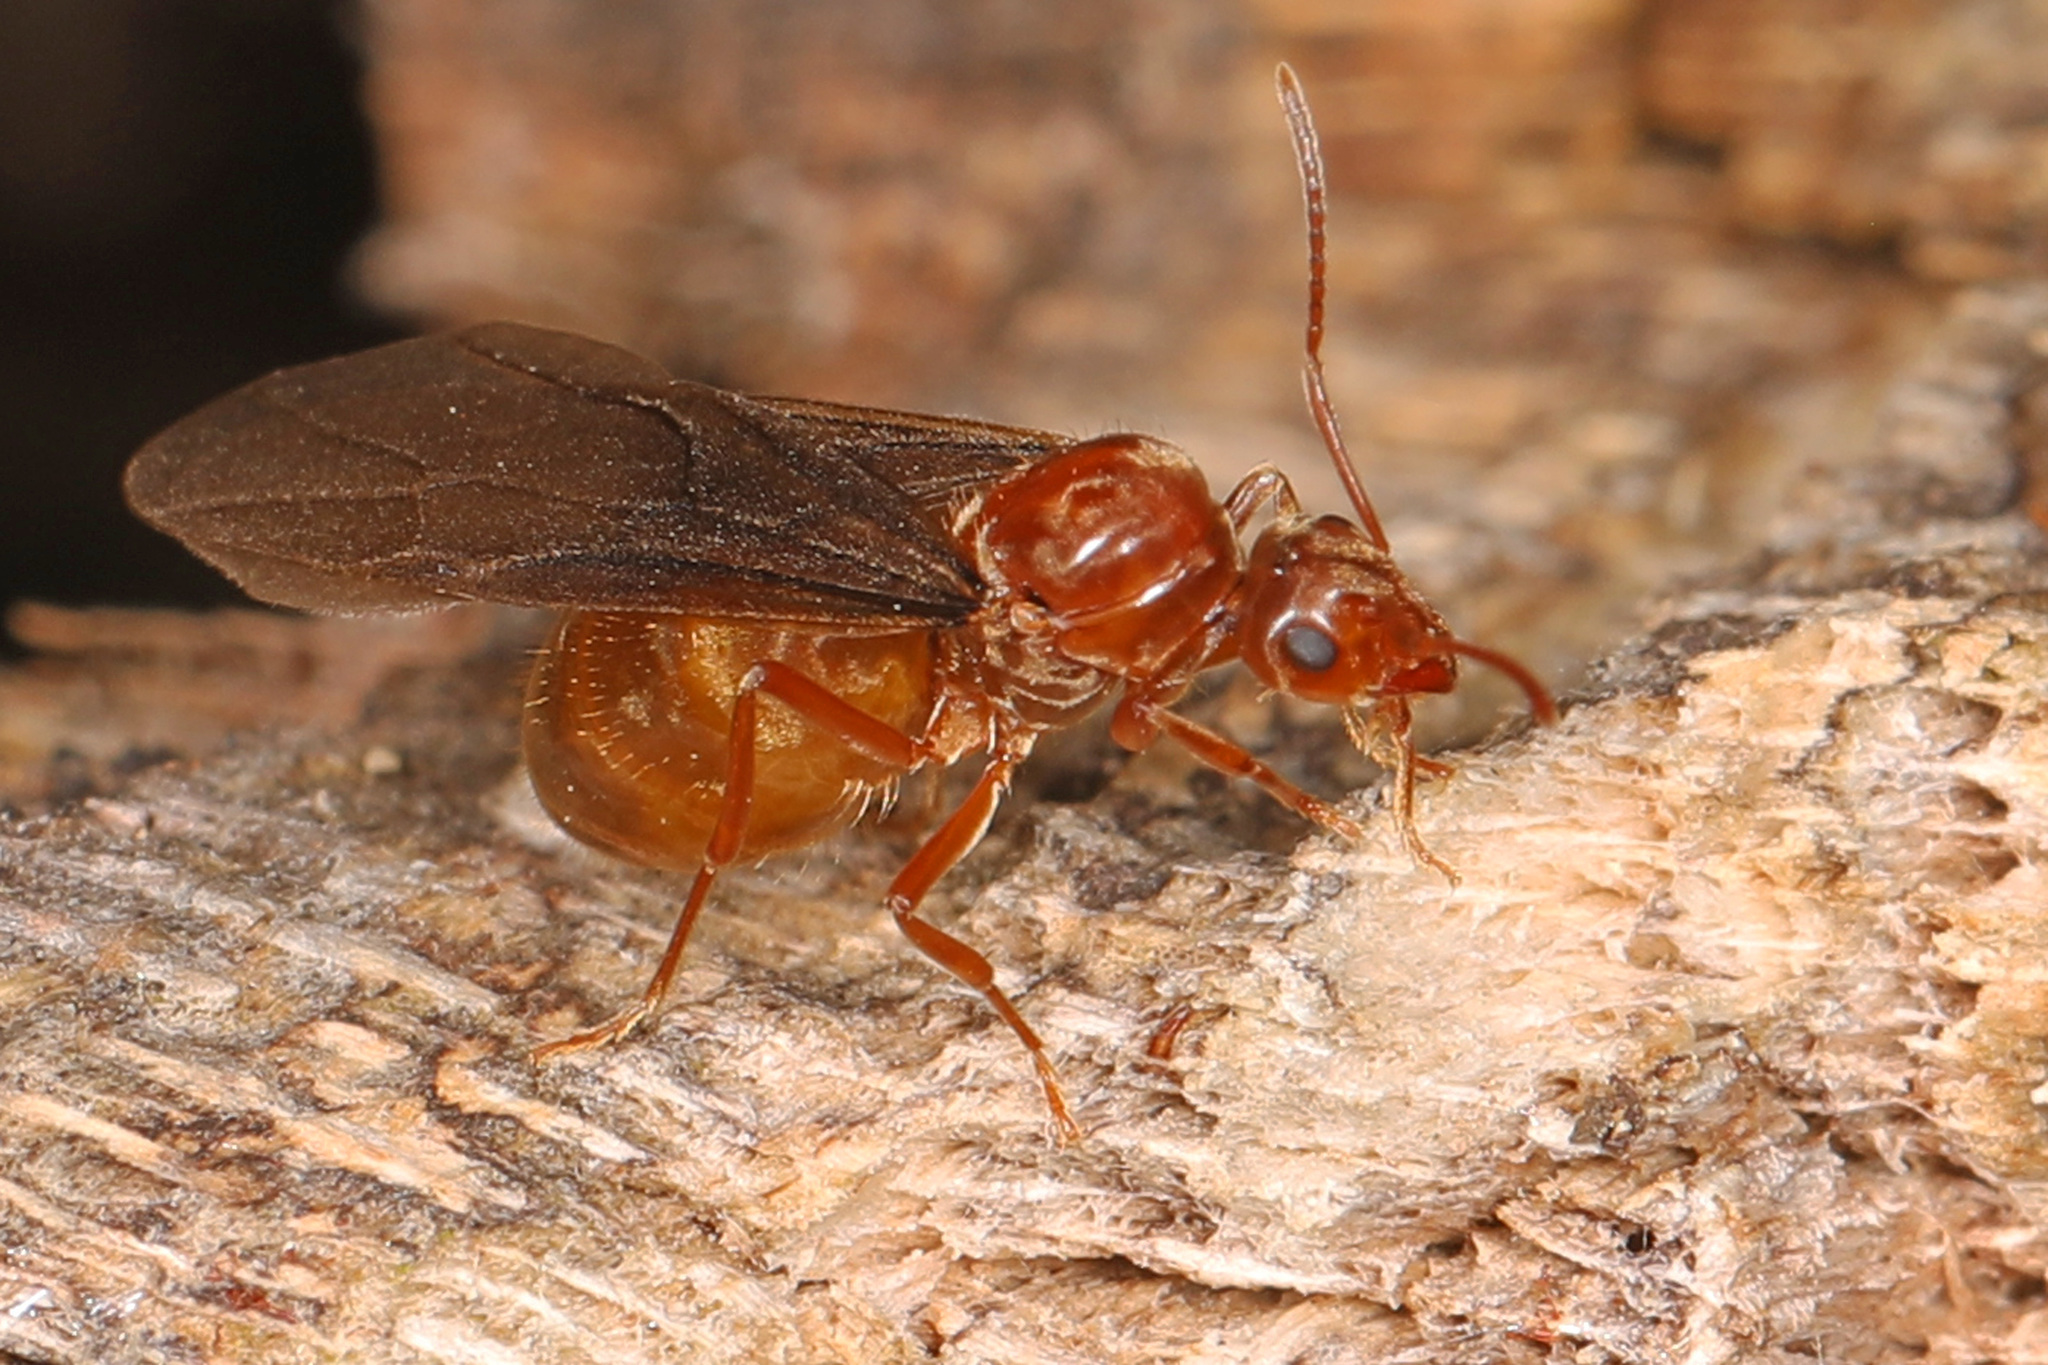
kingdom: Animalia
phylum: Arthropoda
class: Insecta
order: Hymenoptera
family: Formicidae
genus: Prenolepis
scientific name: Prenolepis imparis
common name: Small honey ant
